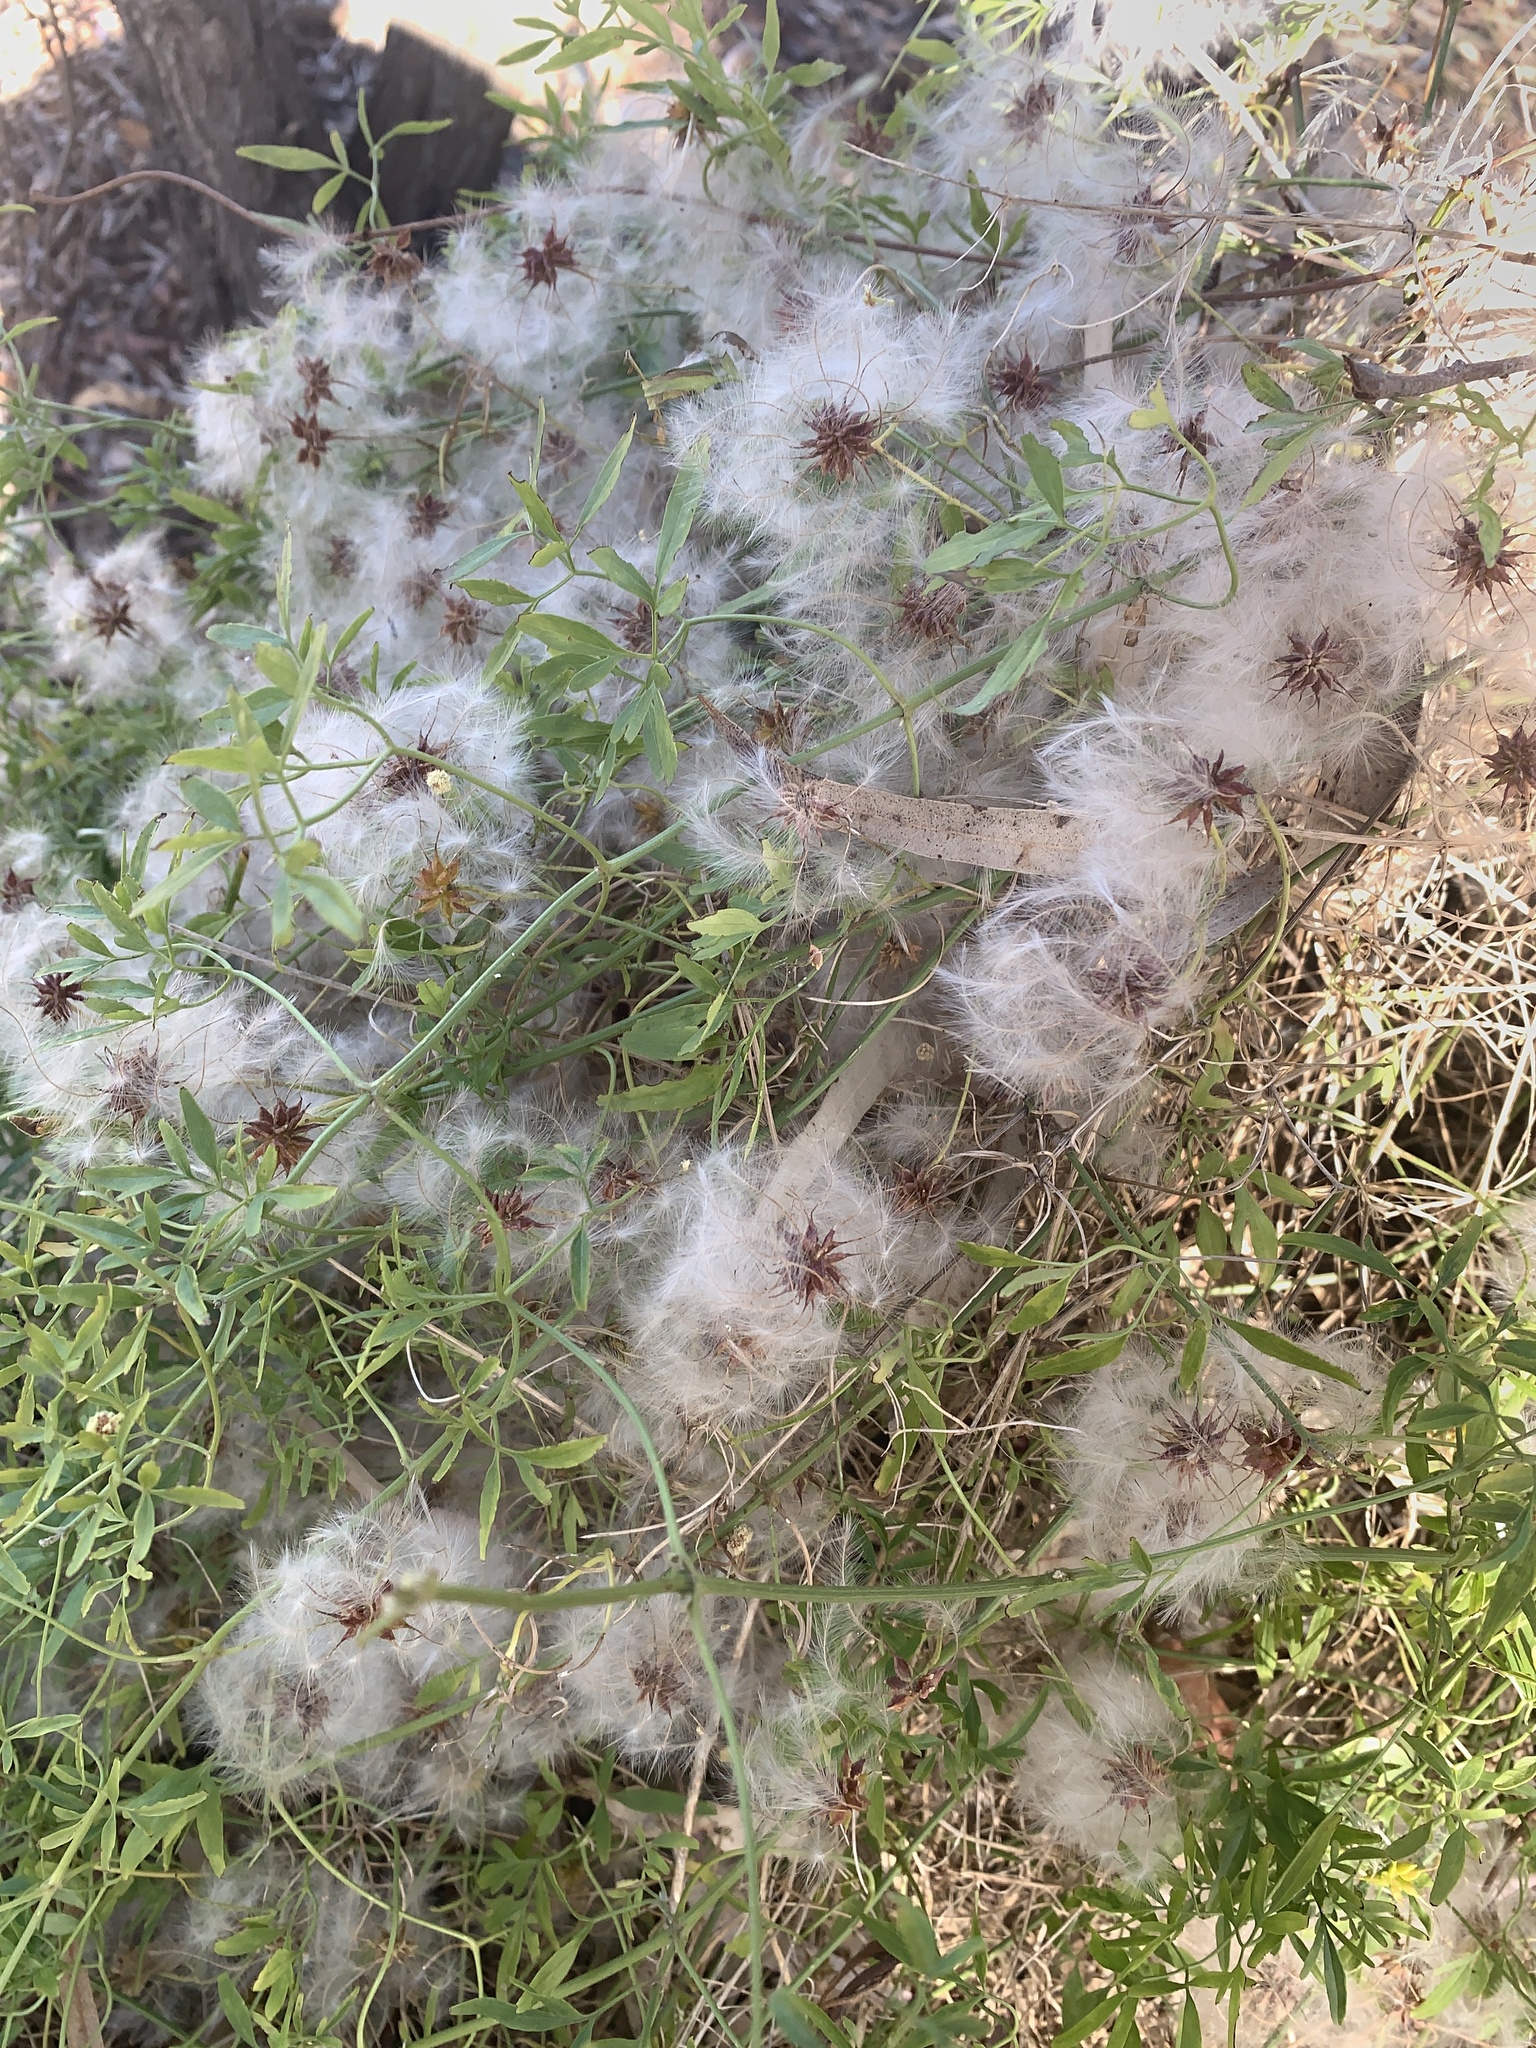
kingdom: Plantae
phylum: Tracheophyta
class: Magnoliopsida
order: Ranunculales
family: Ranunculaceae
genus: Clematis
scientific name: Clematis microphylla
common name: Headachevine
